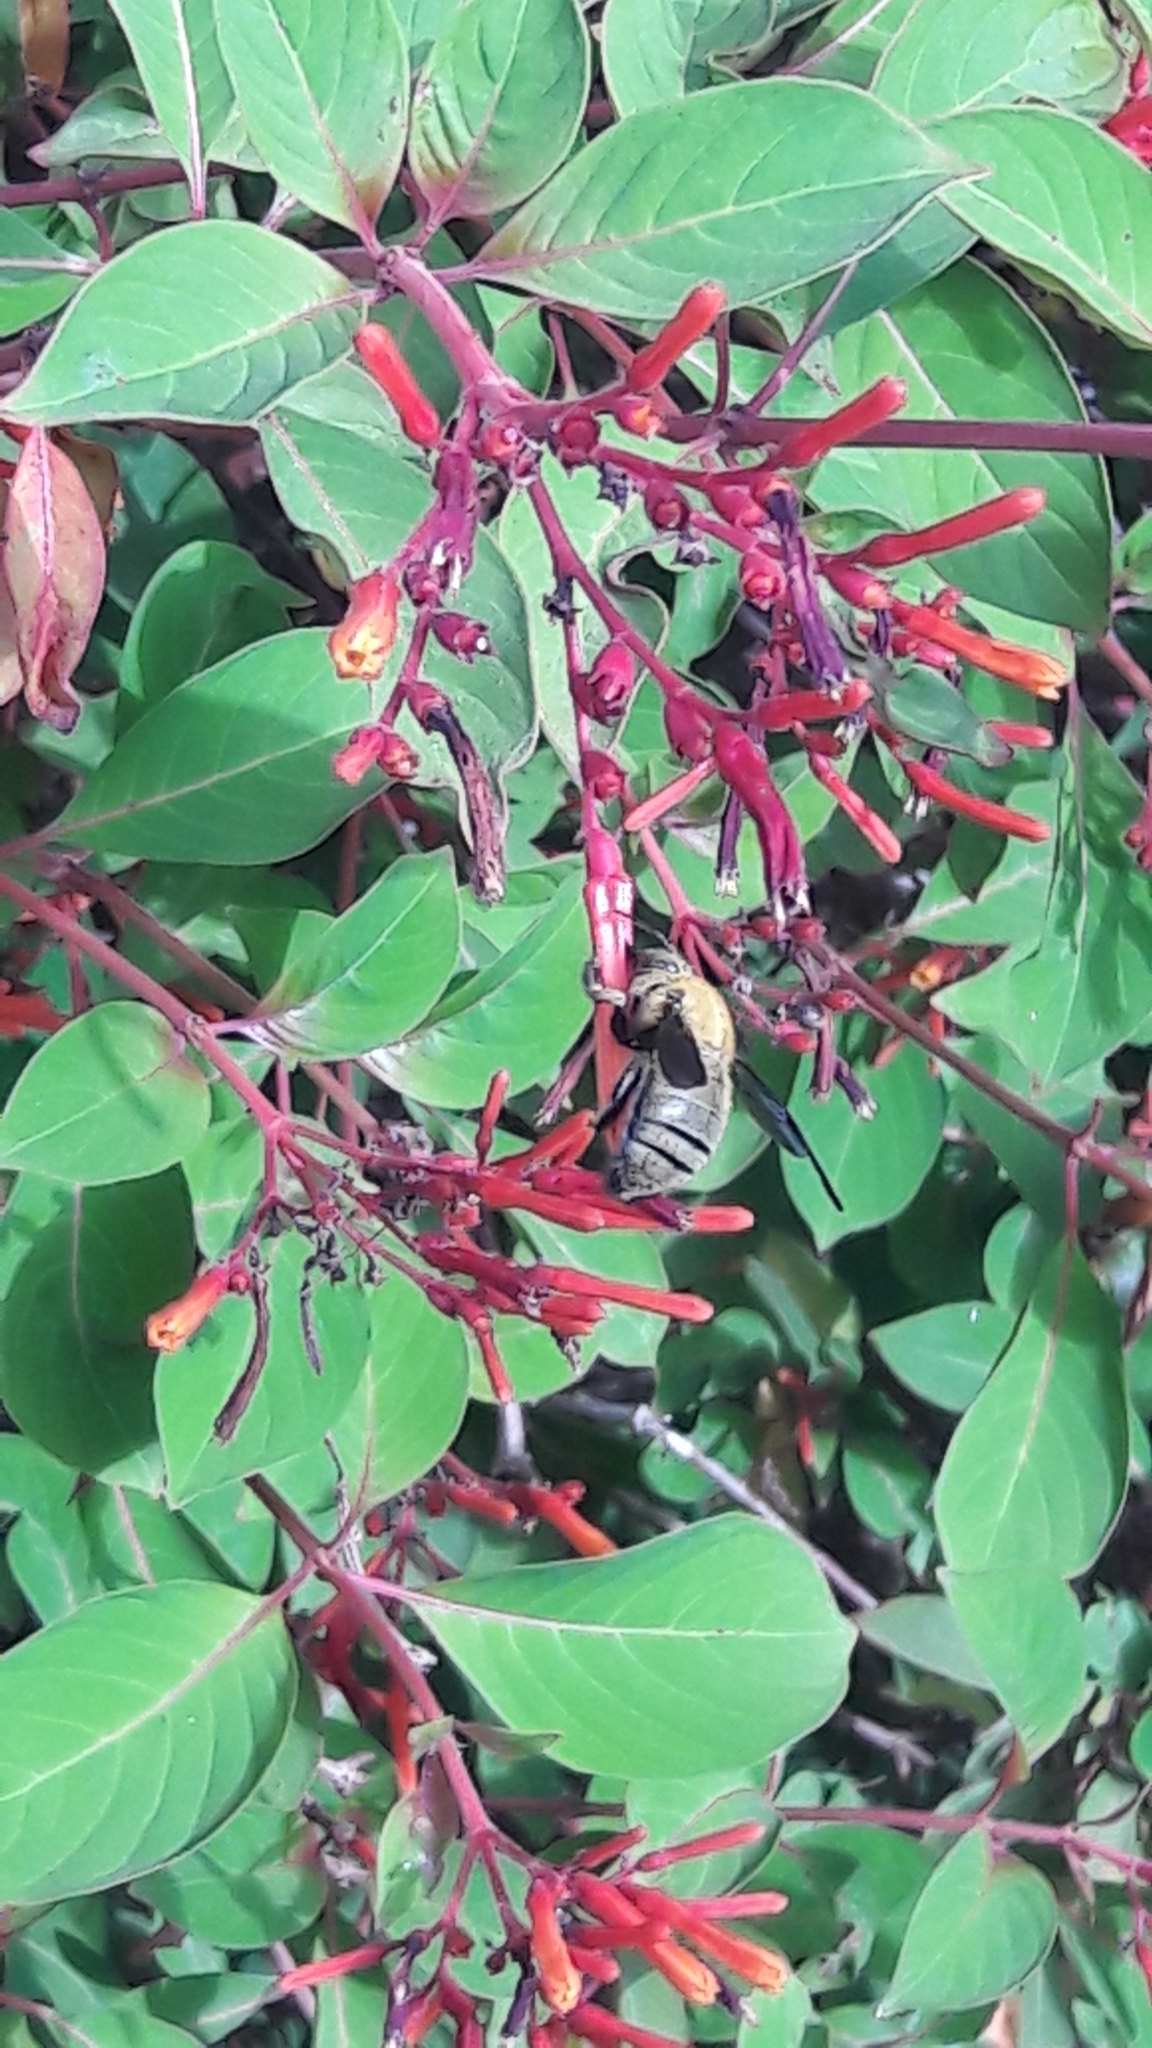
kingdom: Animalia
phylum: Arthropoda
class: Insecta
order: Hymenoptera
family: Apidae
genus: Xylocopa
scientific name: Xylocopa pubescens
